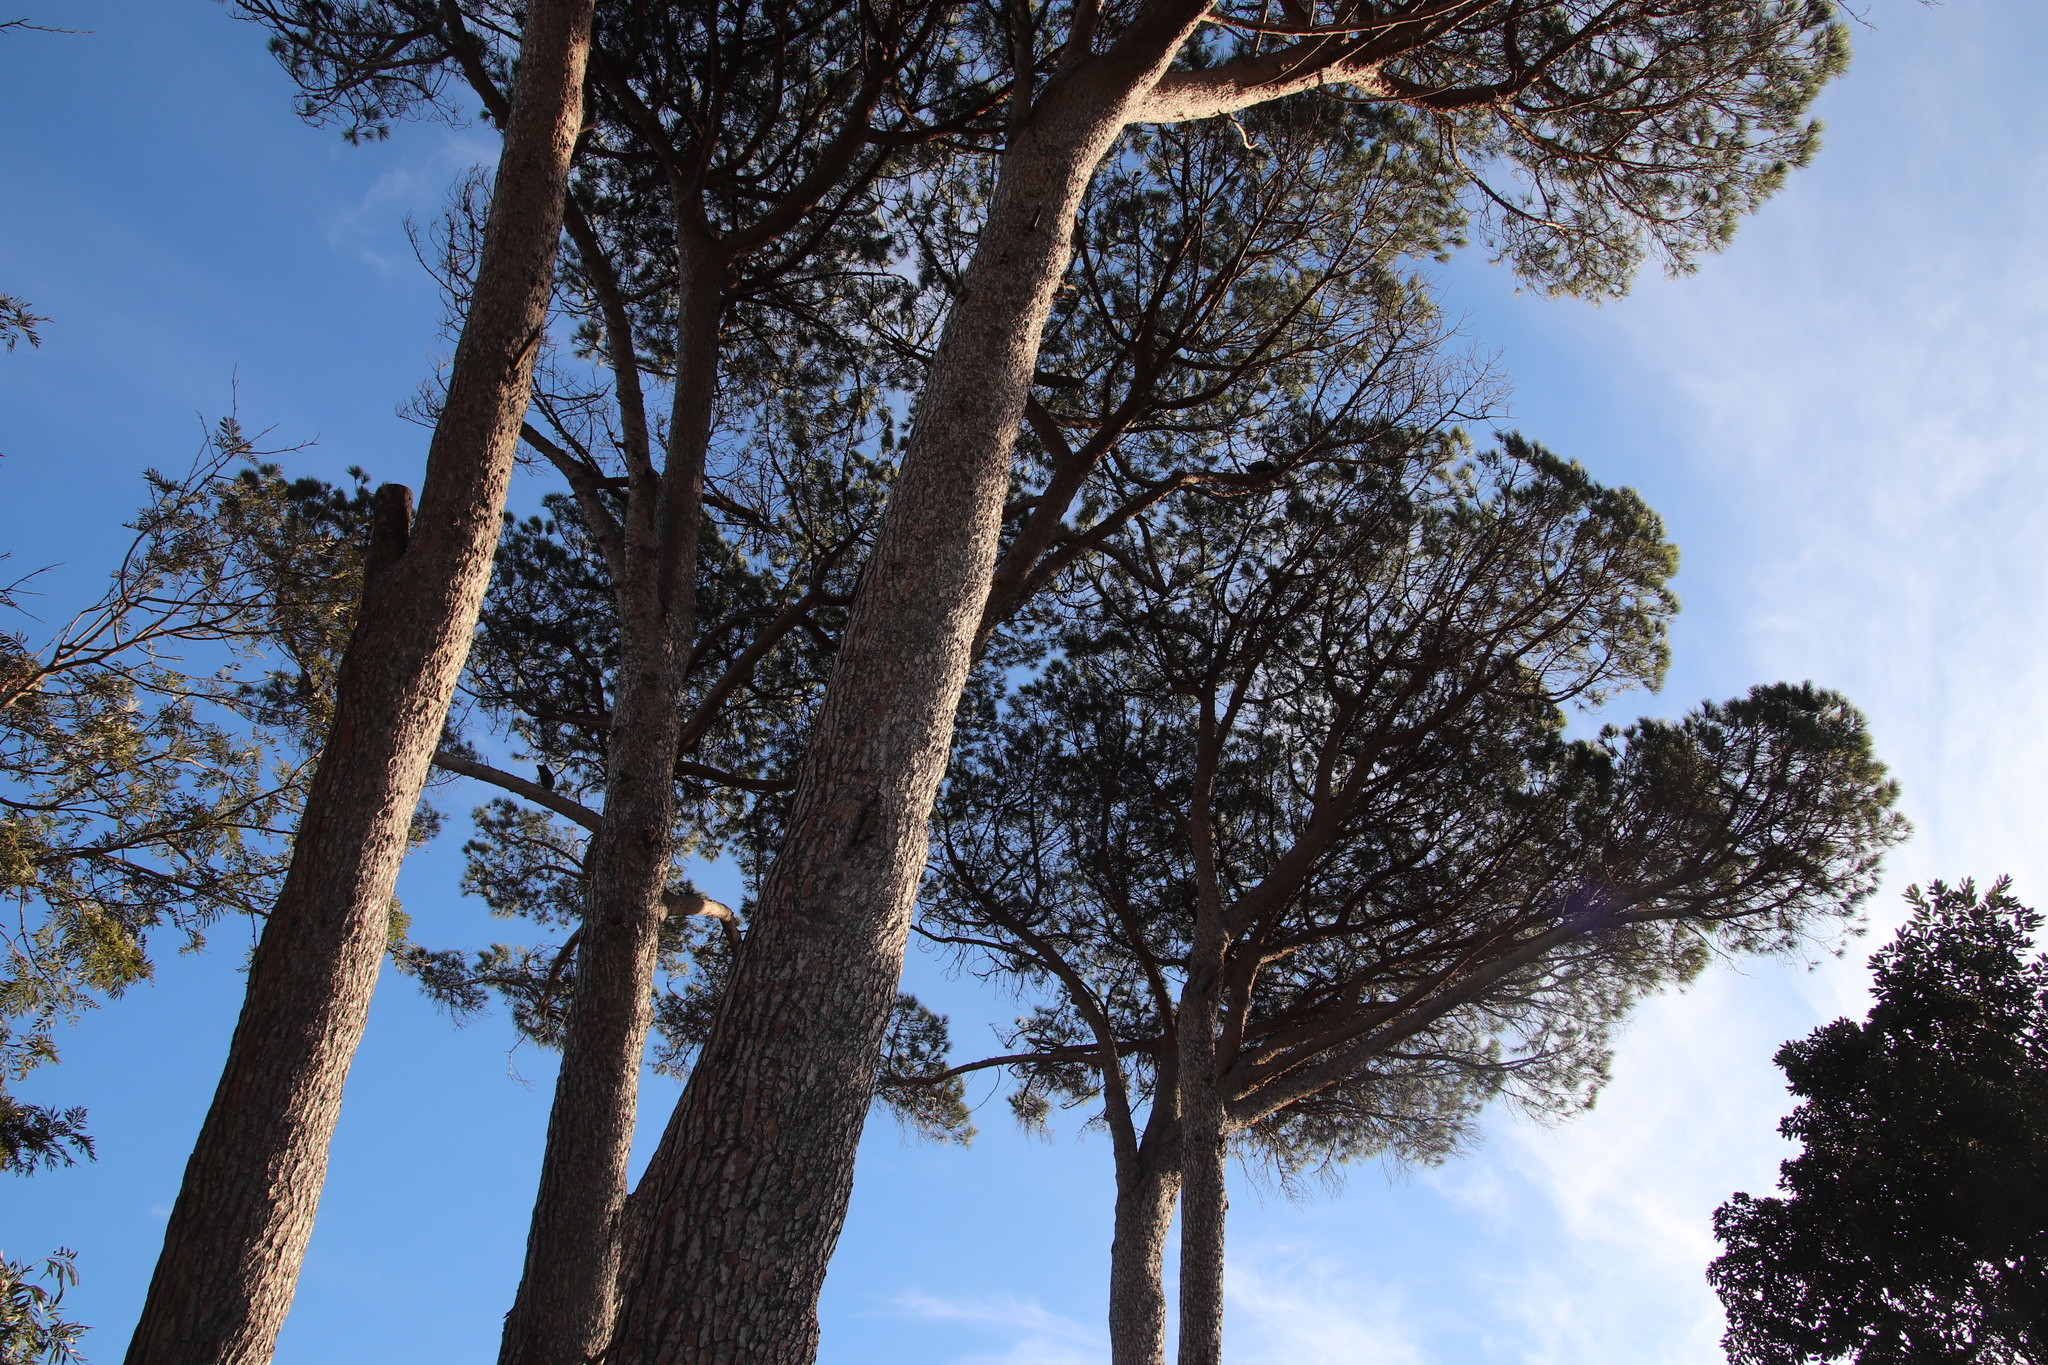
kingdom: Plantae
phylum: Tracheophyta
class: Pinopsida
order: Pinales
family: Pinaceae
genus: Pinus
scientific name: Pinus pinea
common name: Italian stone pine
